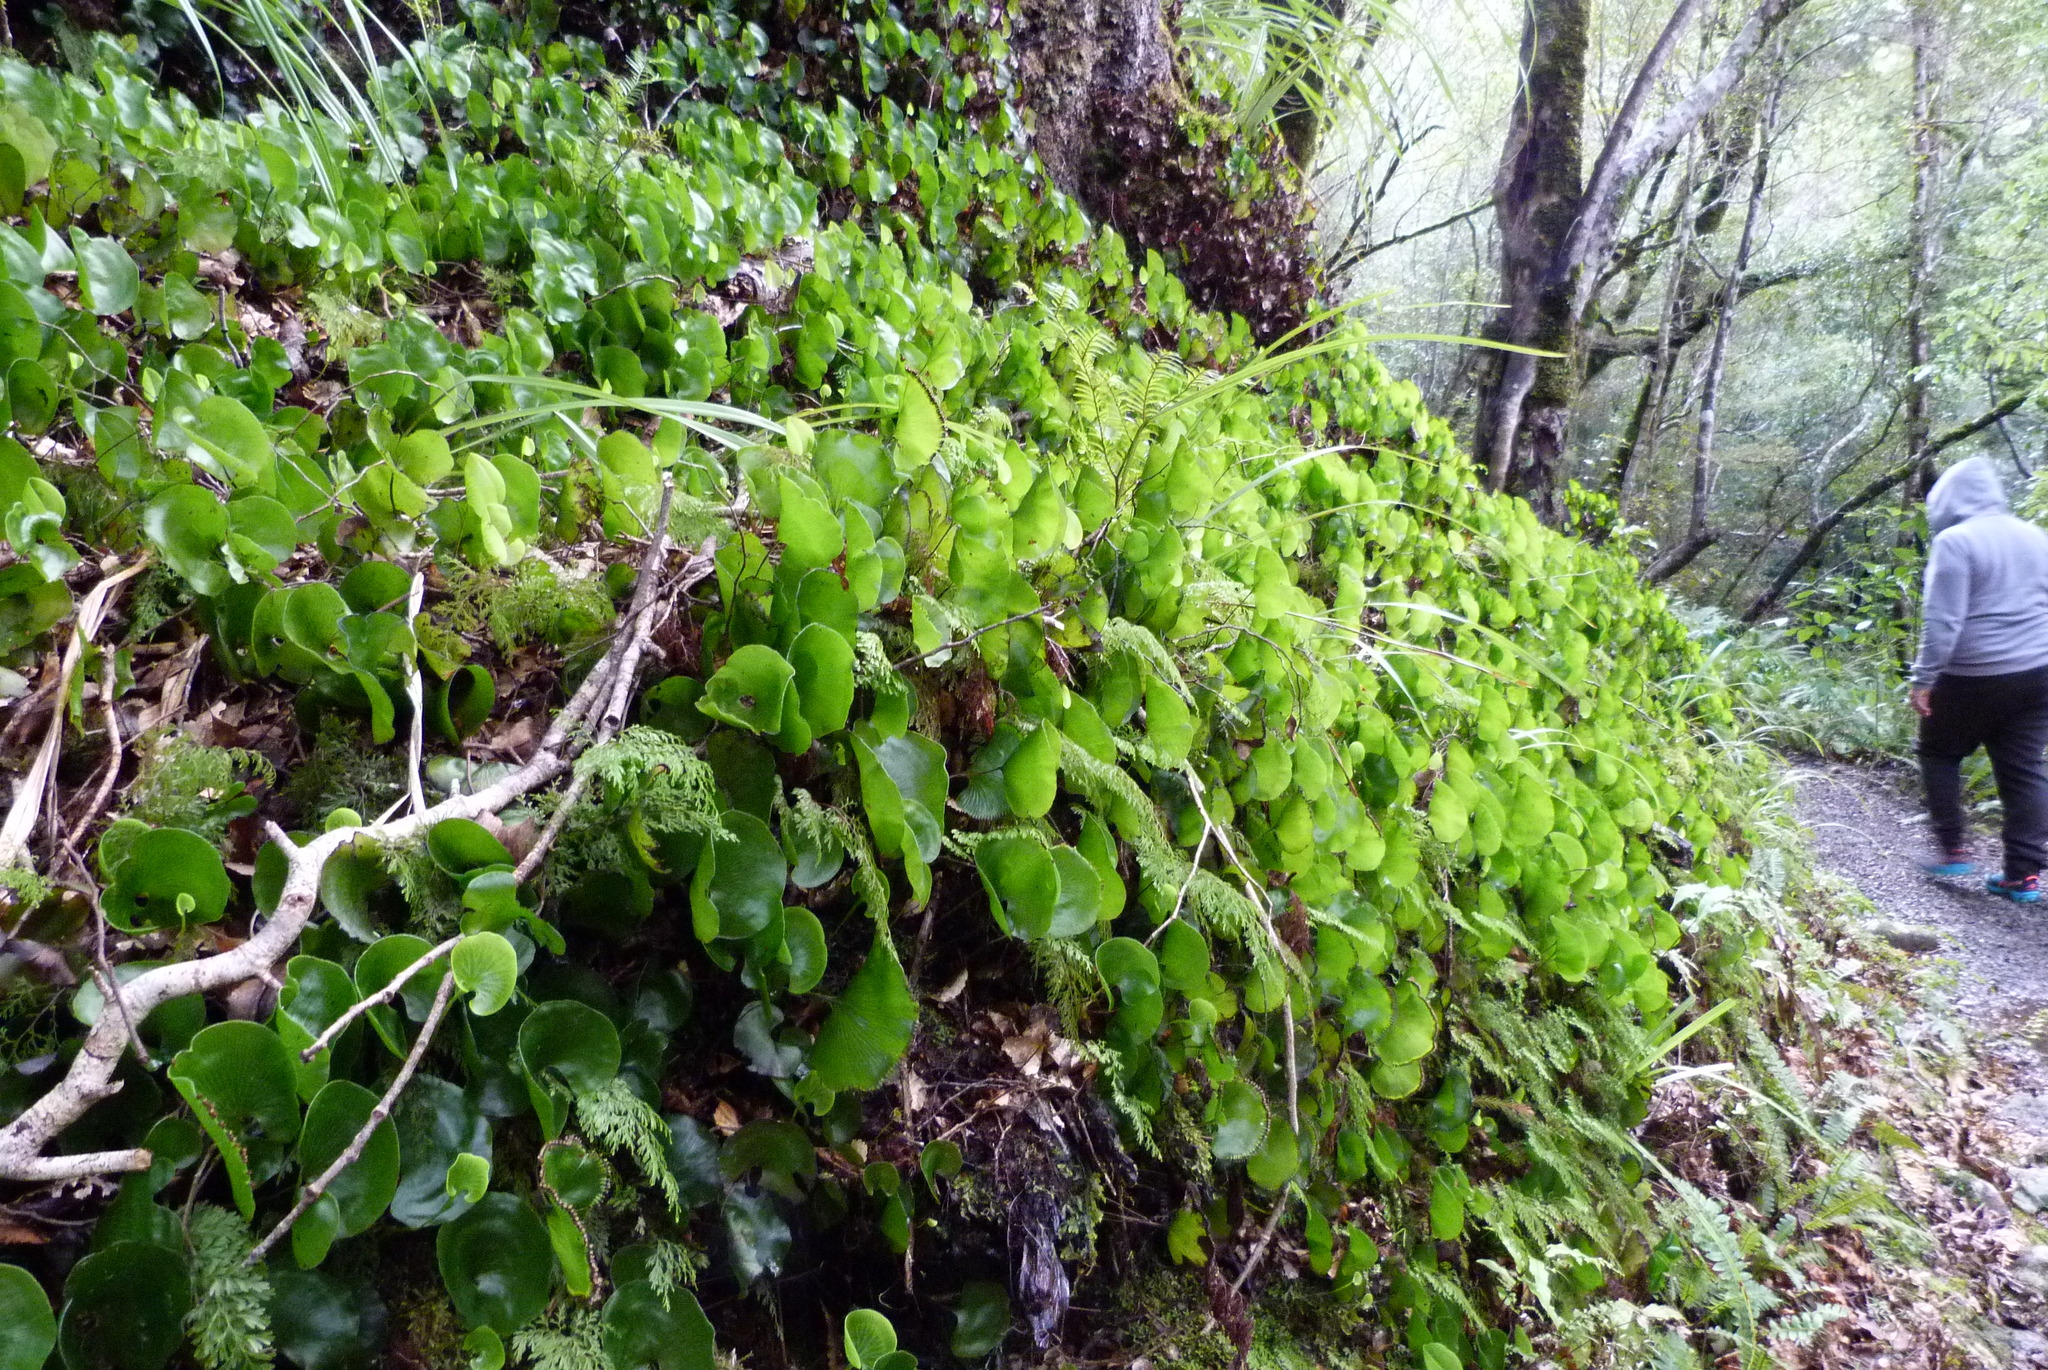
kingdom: Plantae
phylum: Tracheophyta
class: Polypodiopsida
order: Hymenophyllales
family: Hymenophyllaceae
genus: Hymenophyllum
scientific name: Hymenophyllum nephrophyllum
